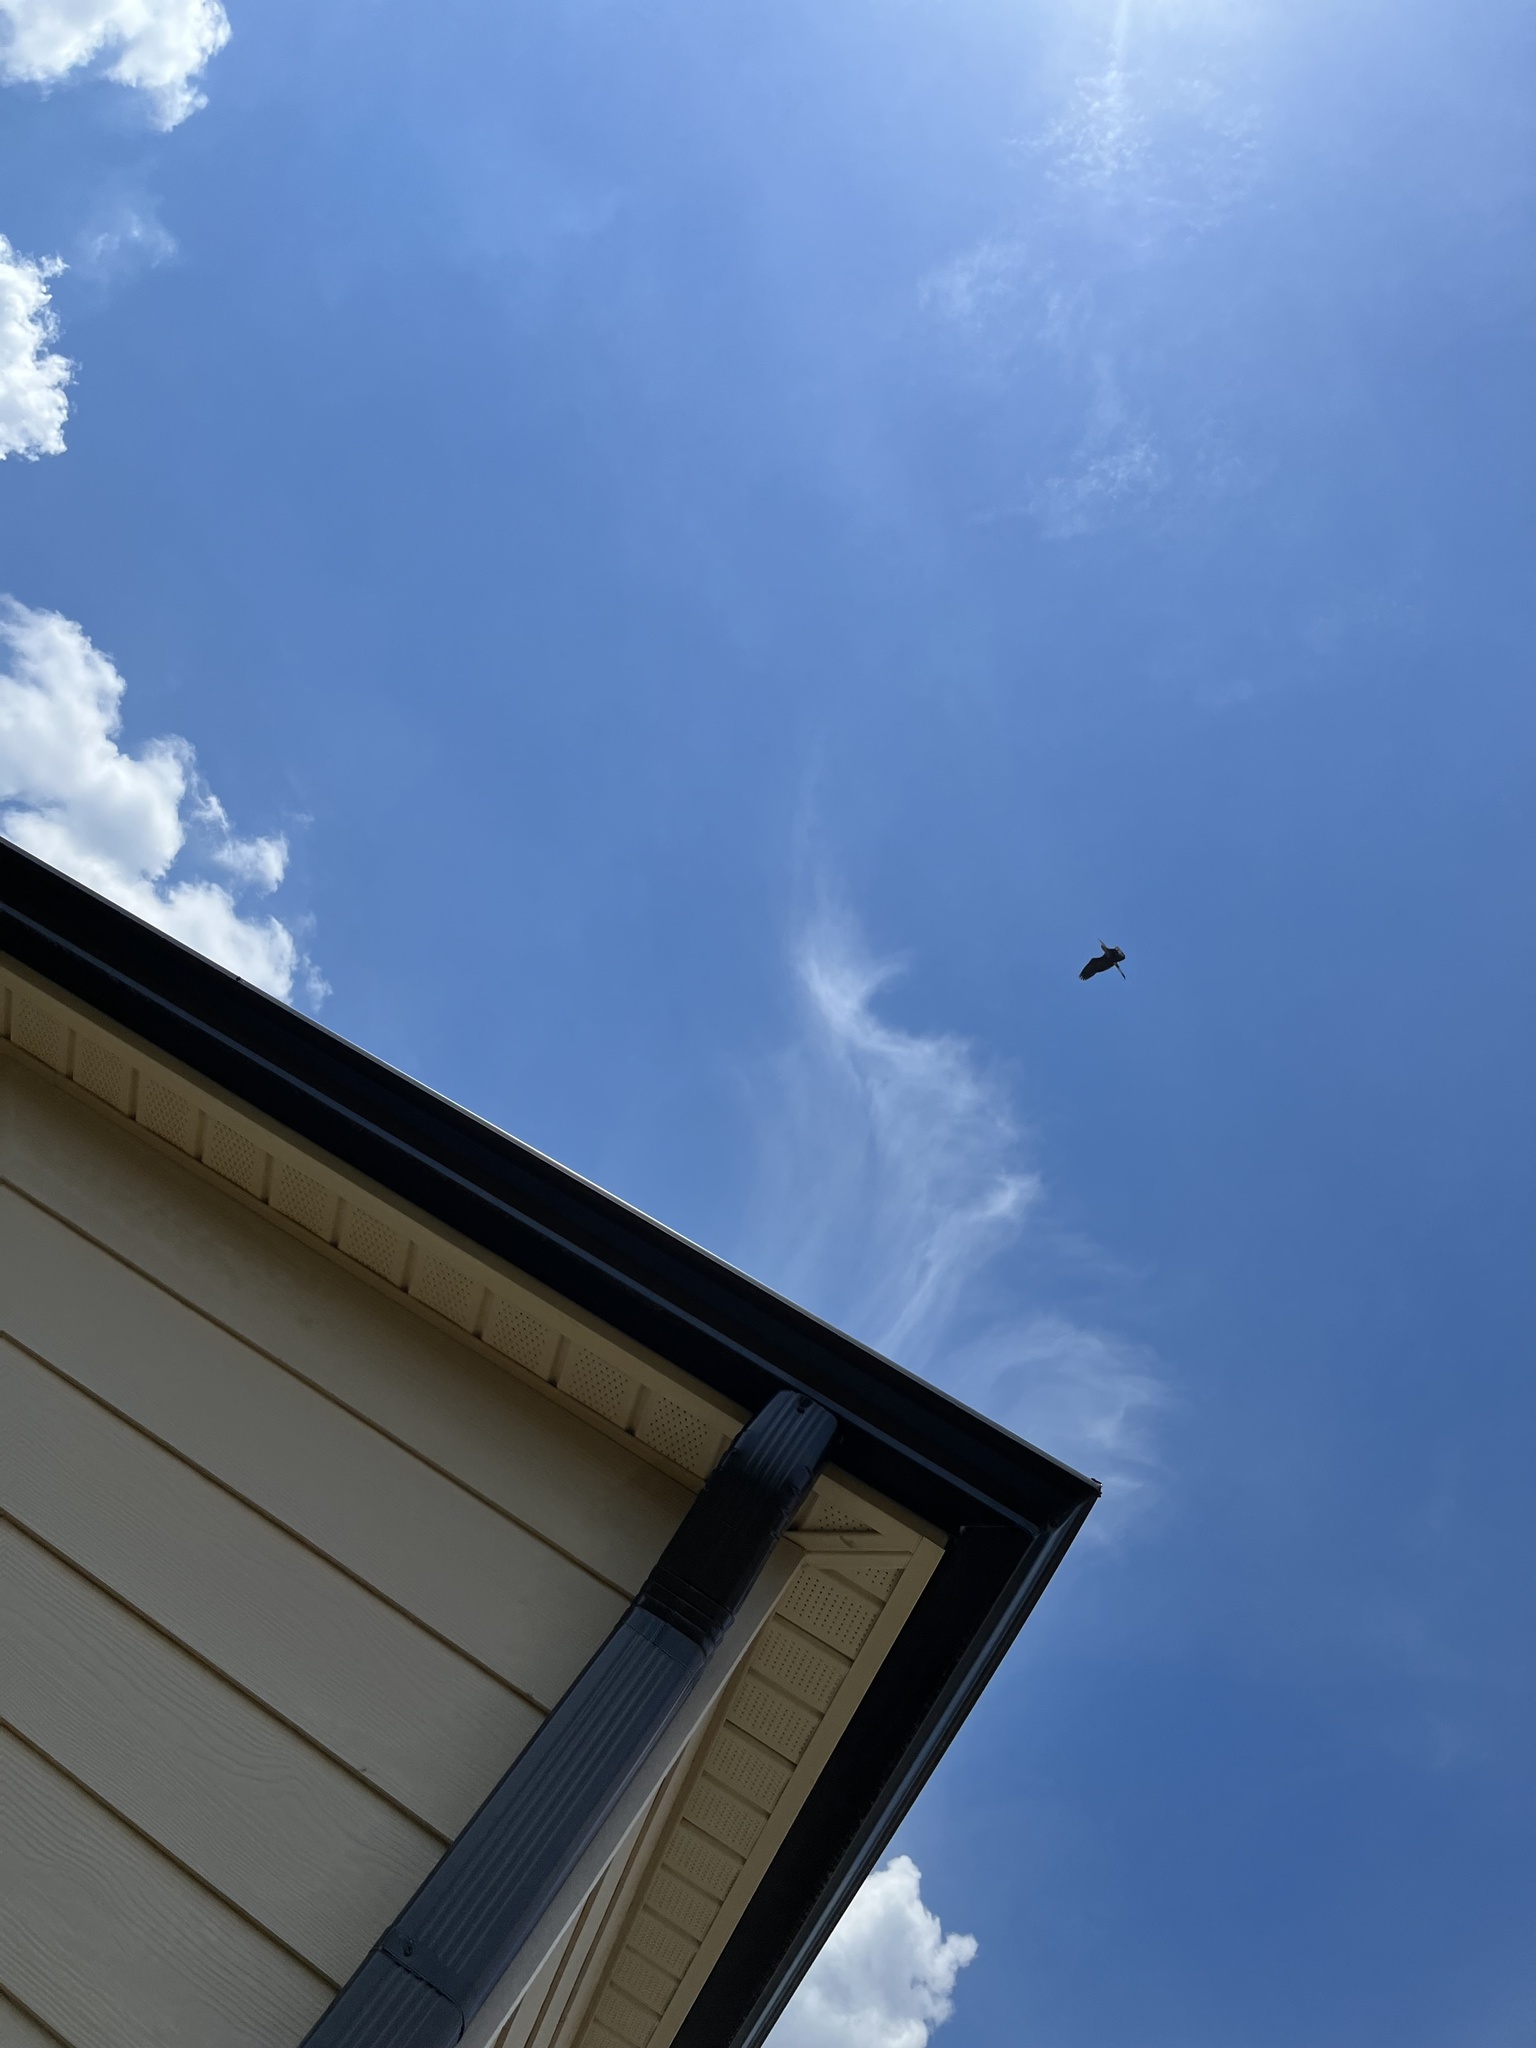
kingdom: Animalia
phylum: Chordata
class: Aves
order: Pelecaniformes
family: Ardeidae
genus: Ardea
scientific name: Ardea herodias
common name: Great blue heron
